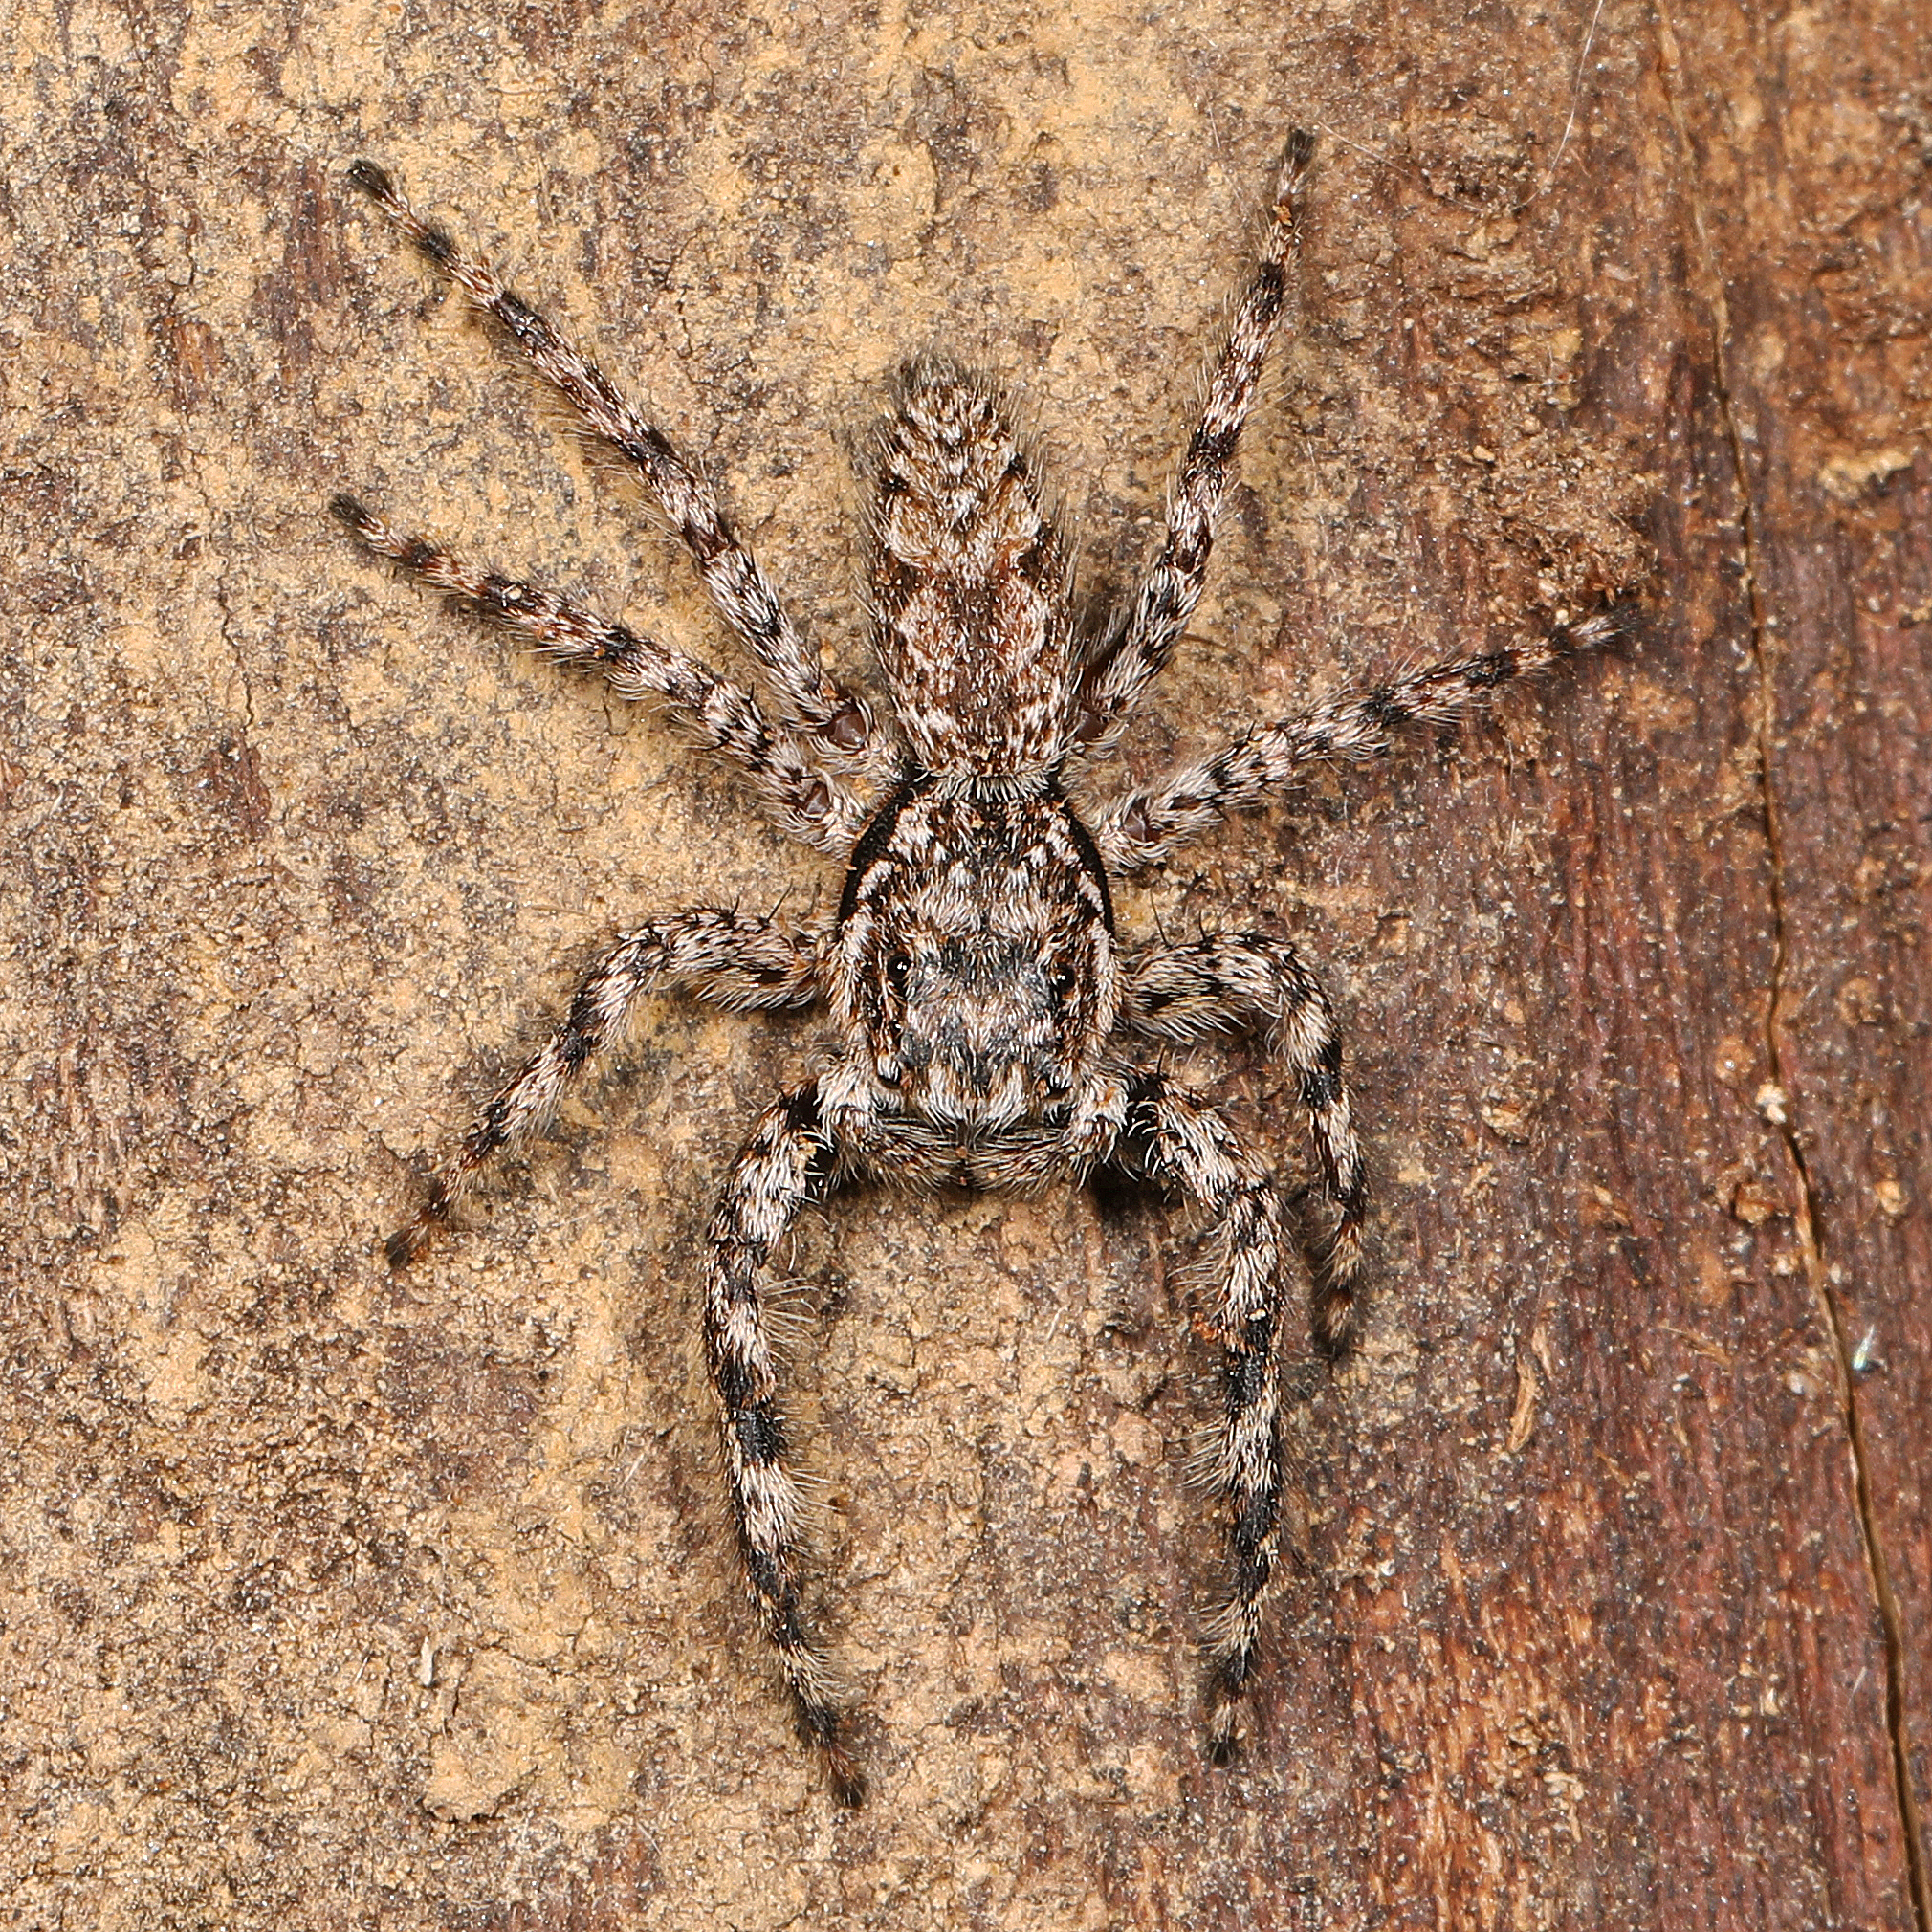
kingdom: Animalia
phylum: Arthropoda
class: Arachnida
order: Araneae
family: Salticidae
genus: Platycryptus
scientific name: Platycryptus undatus
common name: Tan jumping spider
